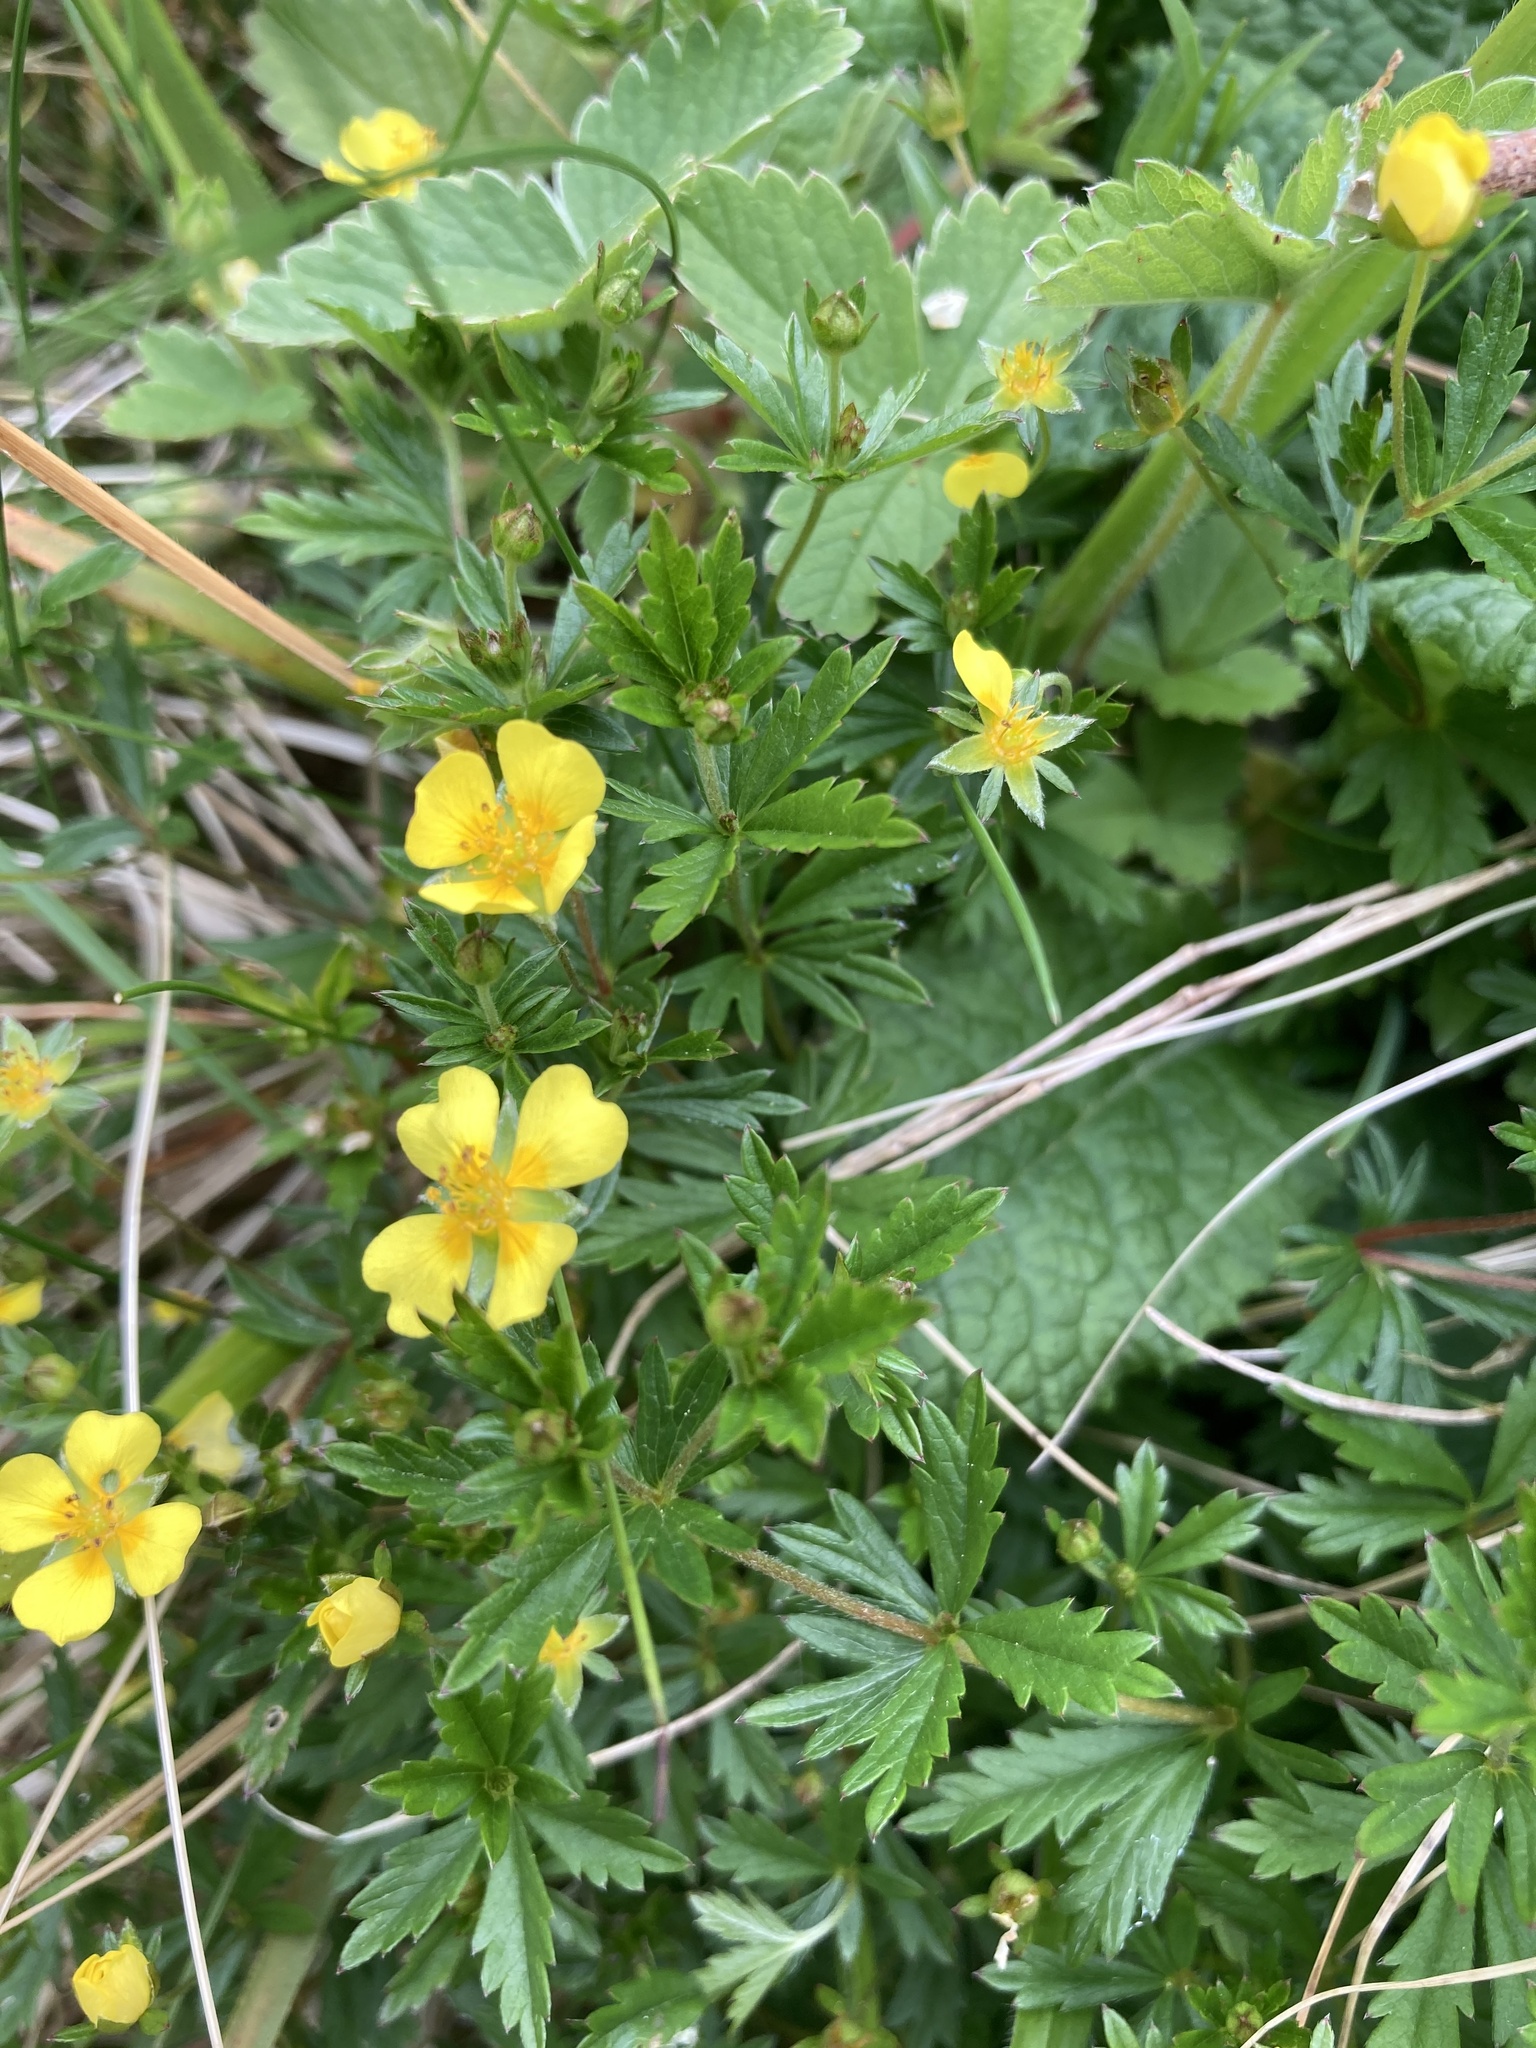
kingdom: Plantae
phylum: Tracheophyta
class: Magnoliopsida
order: Rosales
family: Rosaceae
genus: Potentilla
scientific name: Potentilla erecta
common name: Tormentil
